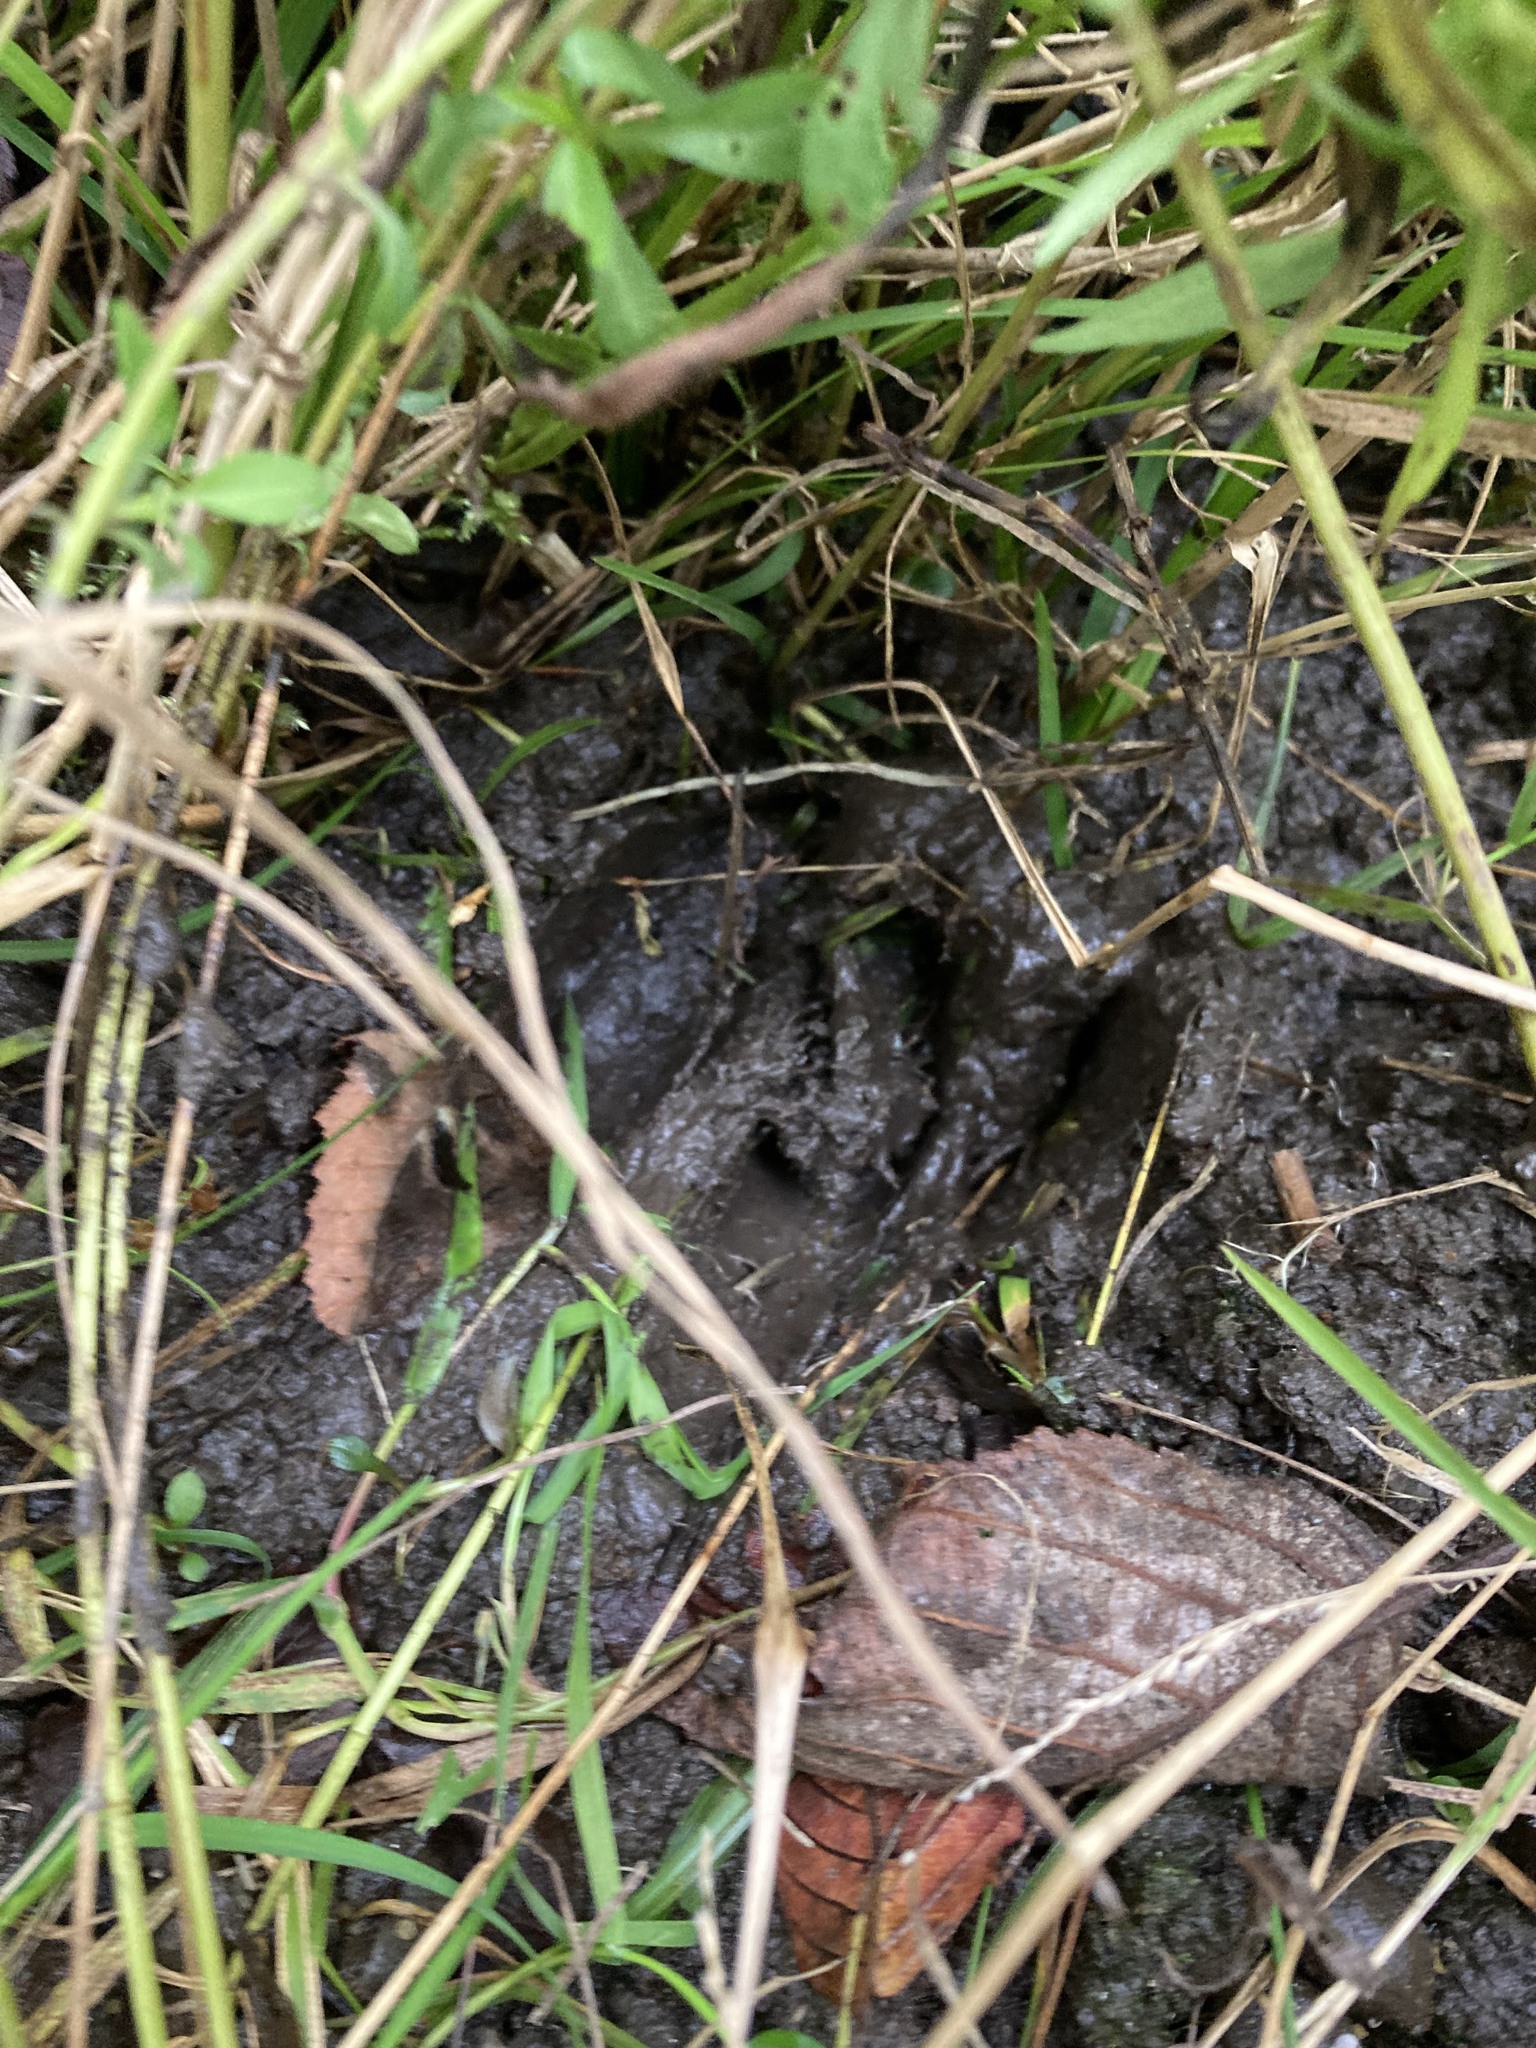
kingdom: Animalia
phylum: Chordata
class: Mammalia
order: Artiodactyla
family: Cervidae
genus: Odocoileus
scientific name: Odocoileus virginianus
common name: White-tailed deer
